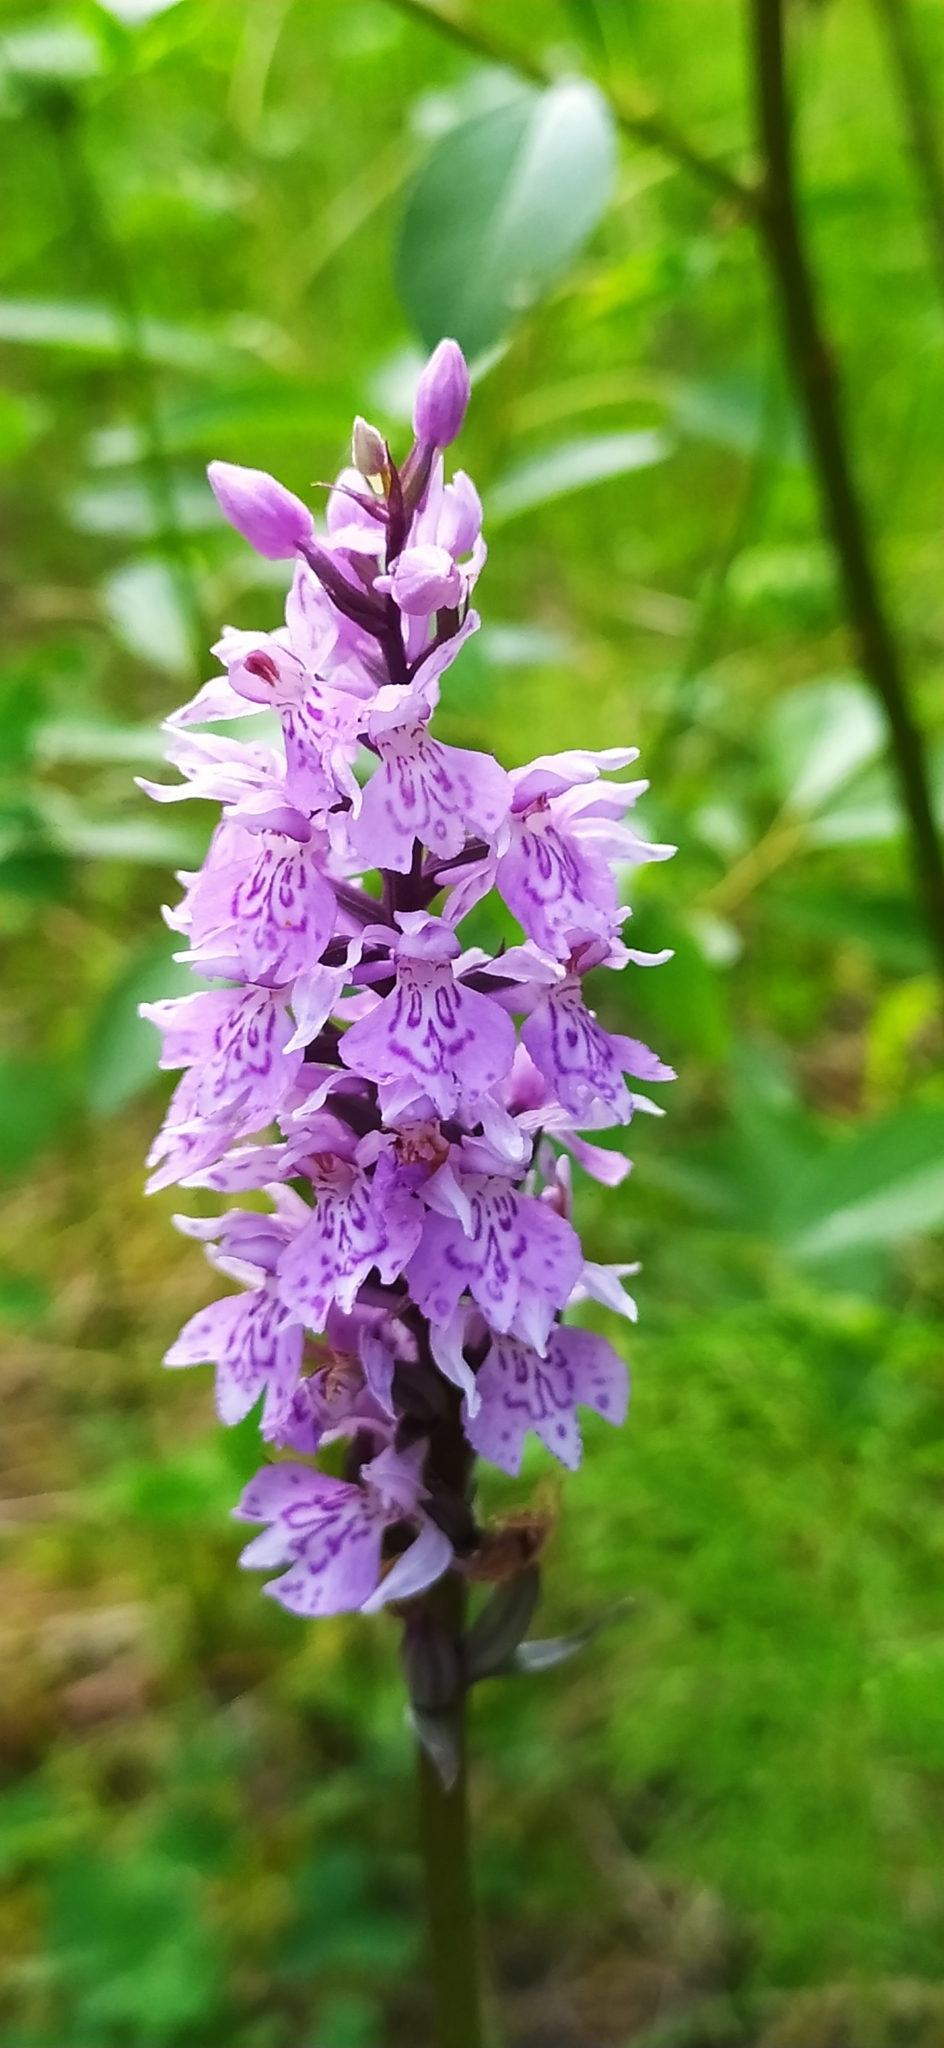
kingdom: Plantae
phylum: Tracheophyta
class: Liliopsida
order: Asparagales
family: Orchidaceae
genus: Dactylorhiza
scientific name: Dactylorhiza maculata
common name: Heath spotted-orchid
